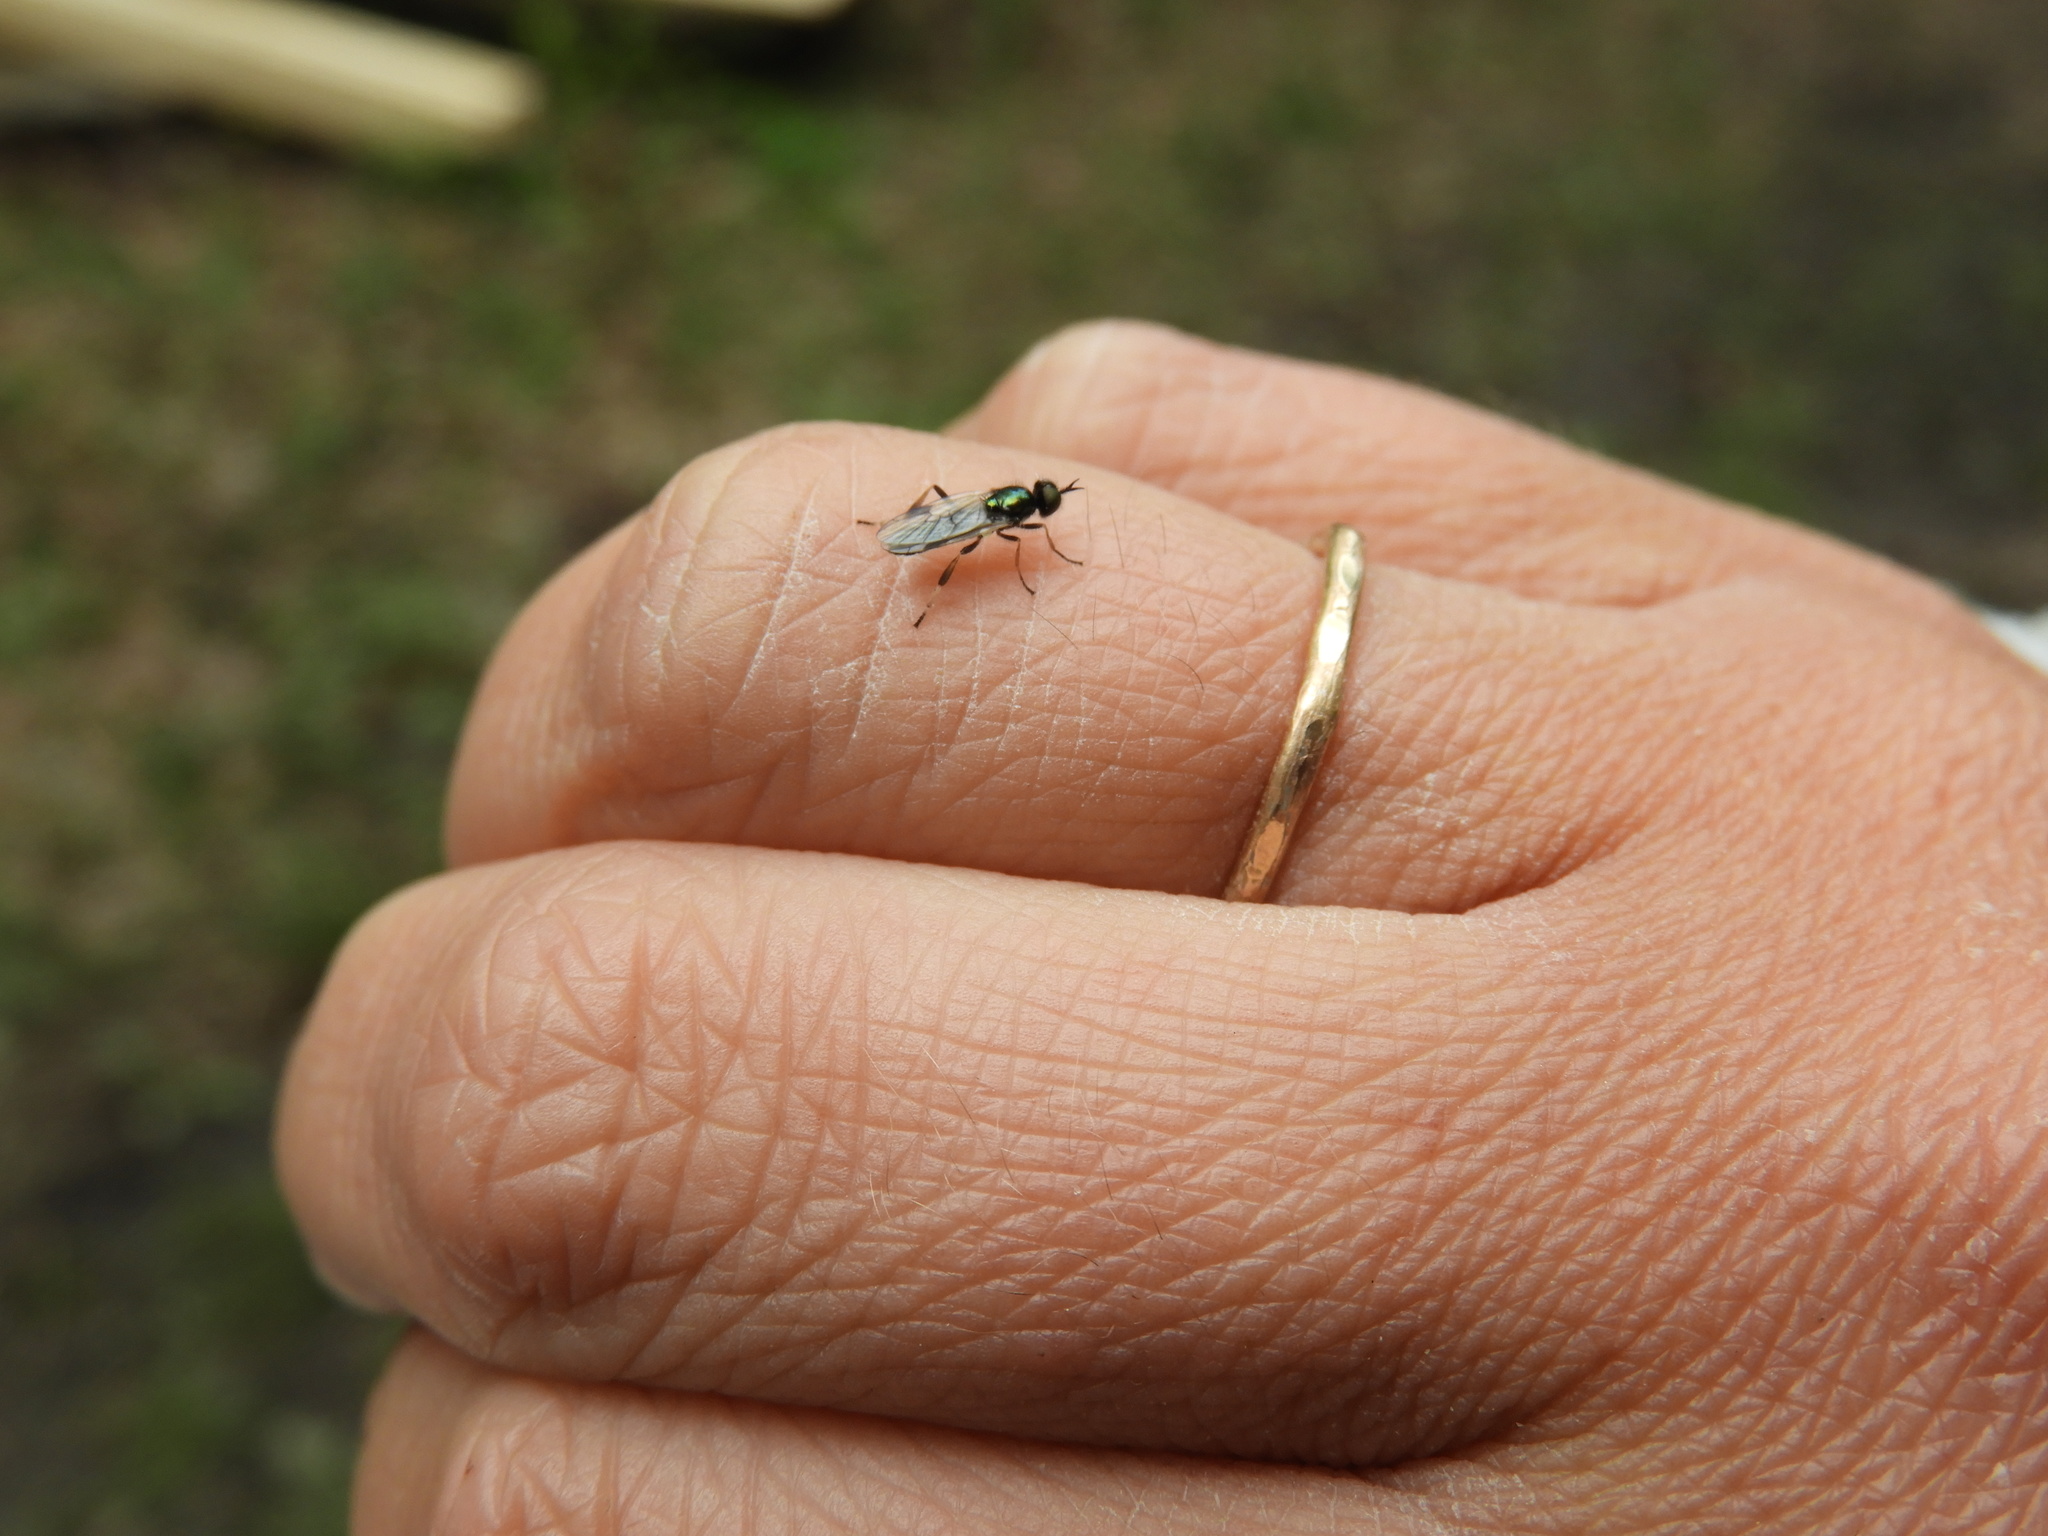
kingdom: Animalia
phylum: Arthropoda
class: Insecta
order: Diptera
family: Stratiomyidae
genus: Actina
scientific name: Actina viridis
